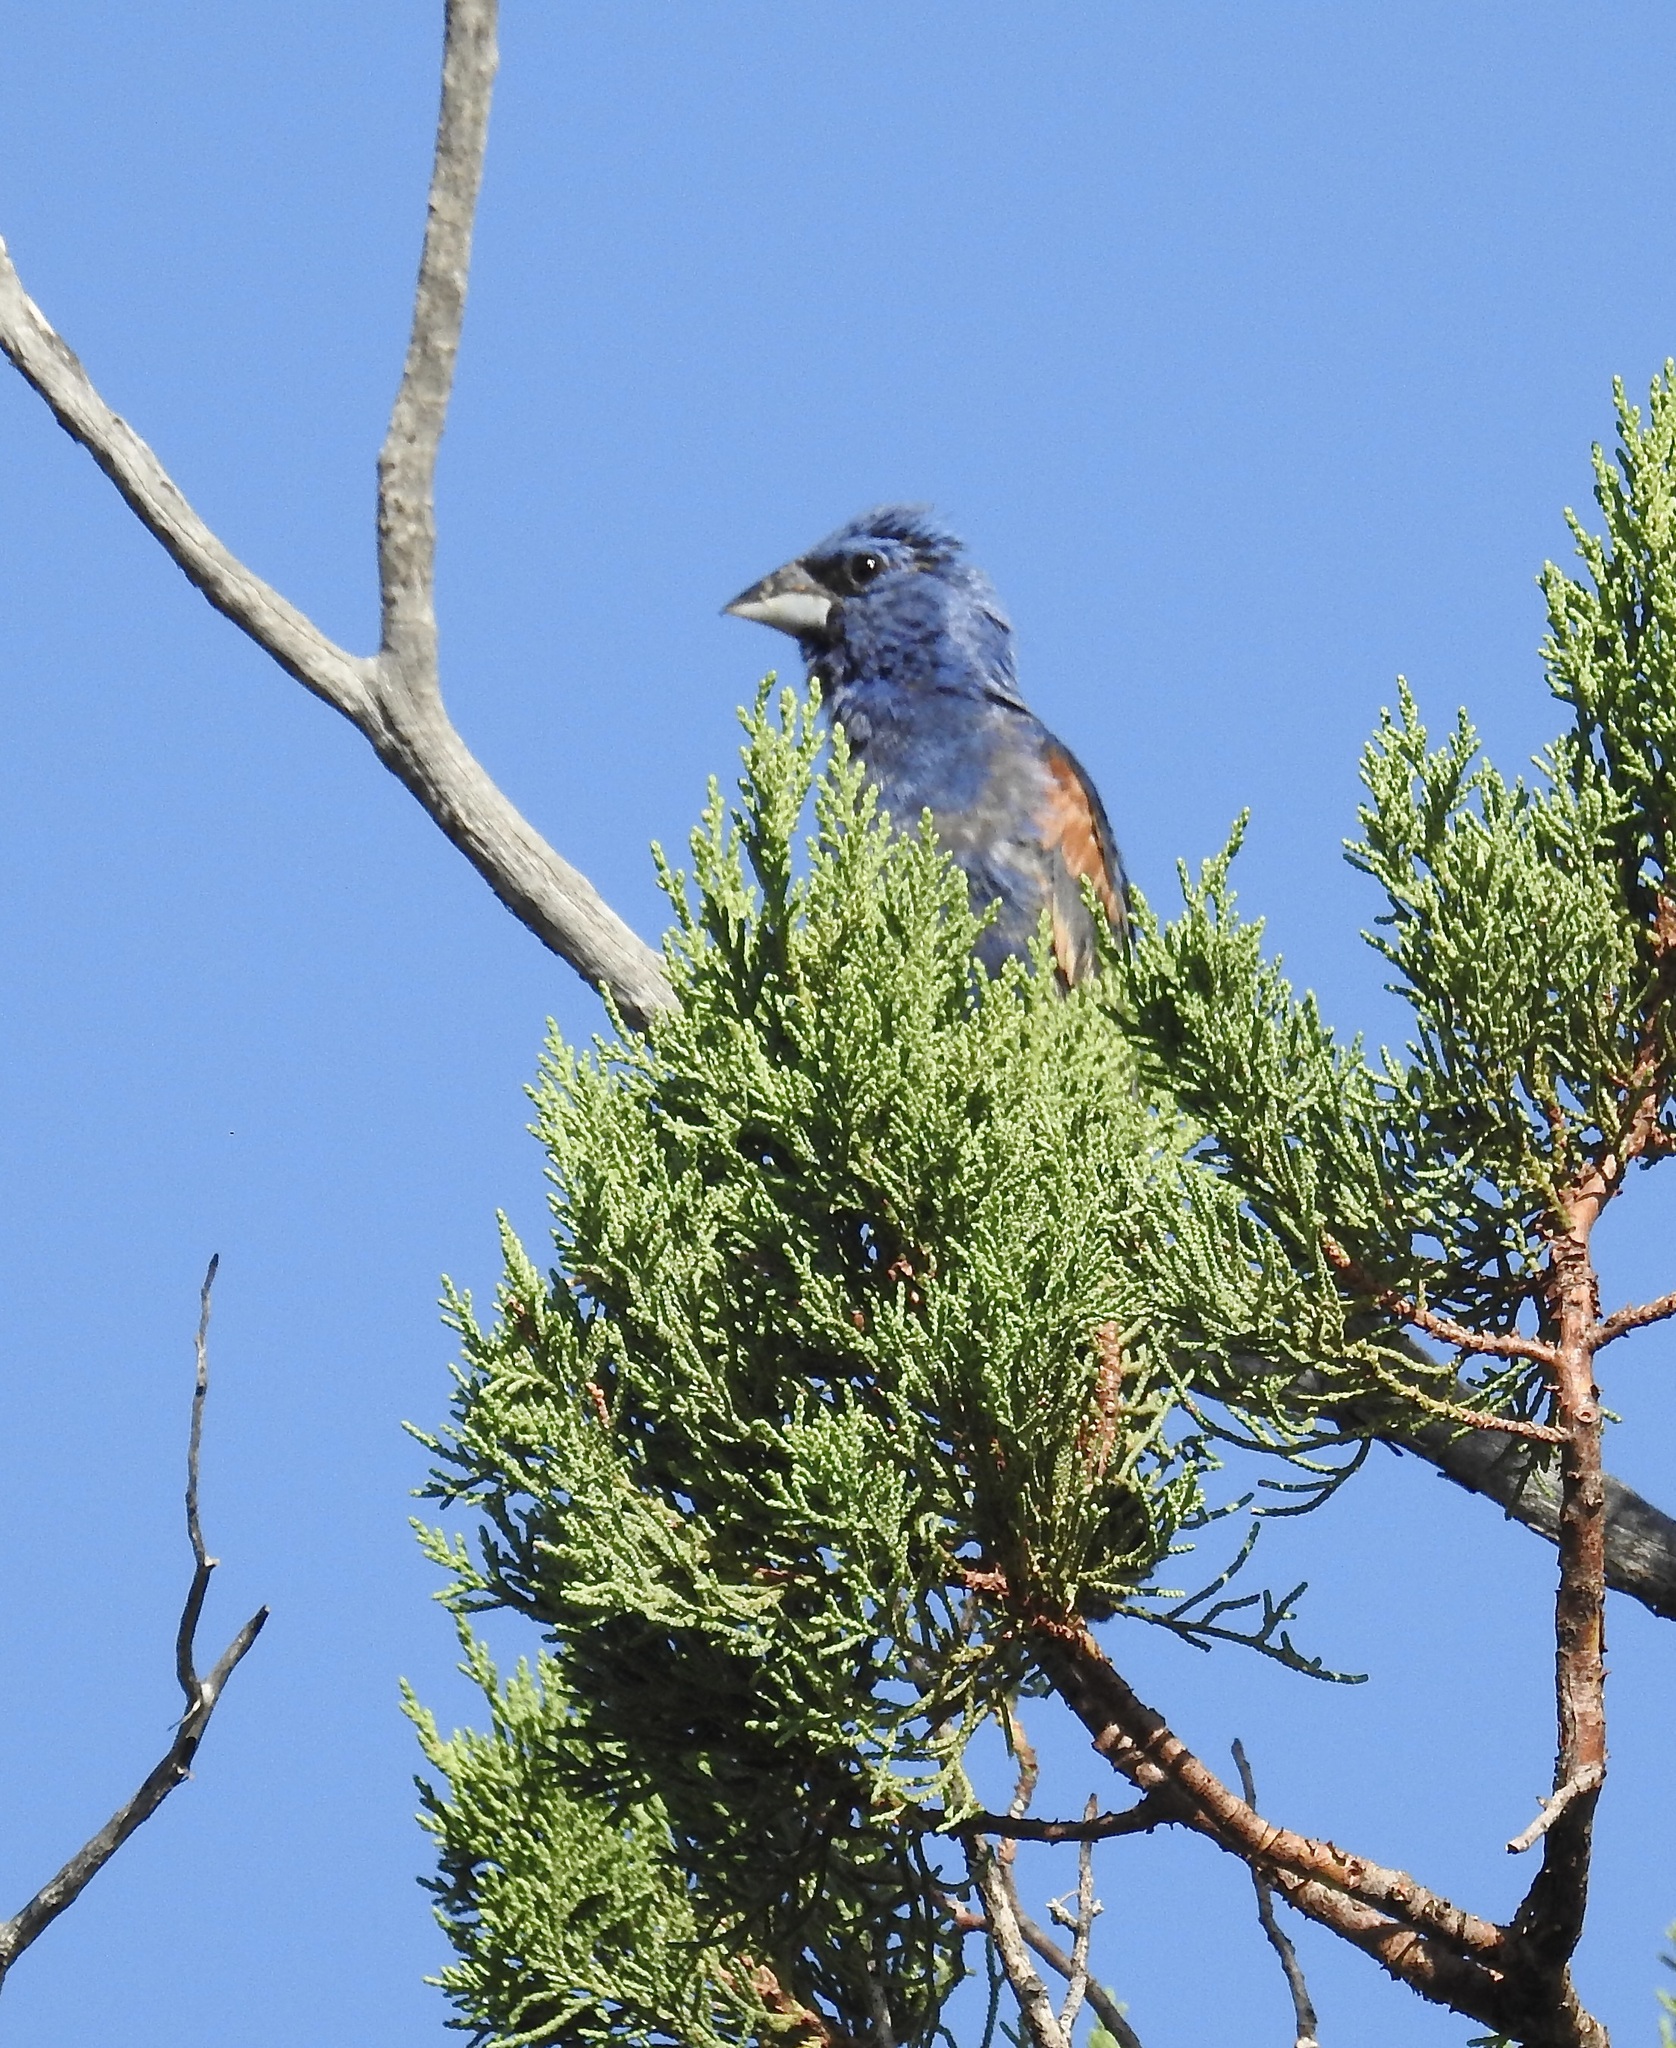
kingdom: Animalia
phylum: Chordata
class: Aves
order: Passeriformes
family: Cardinalidae
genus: Passerina
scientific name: Passerina caerulea
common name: Blue grosbeak
